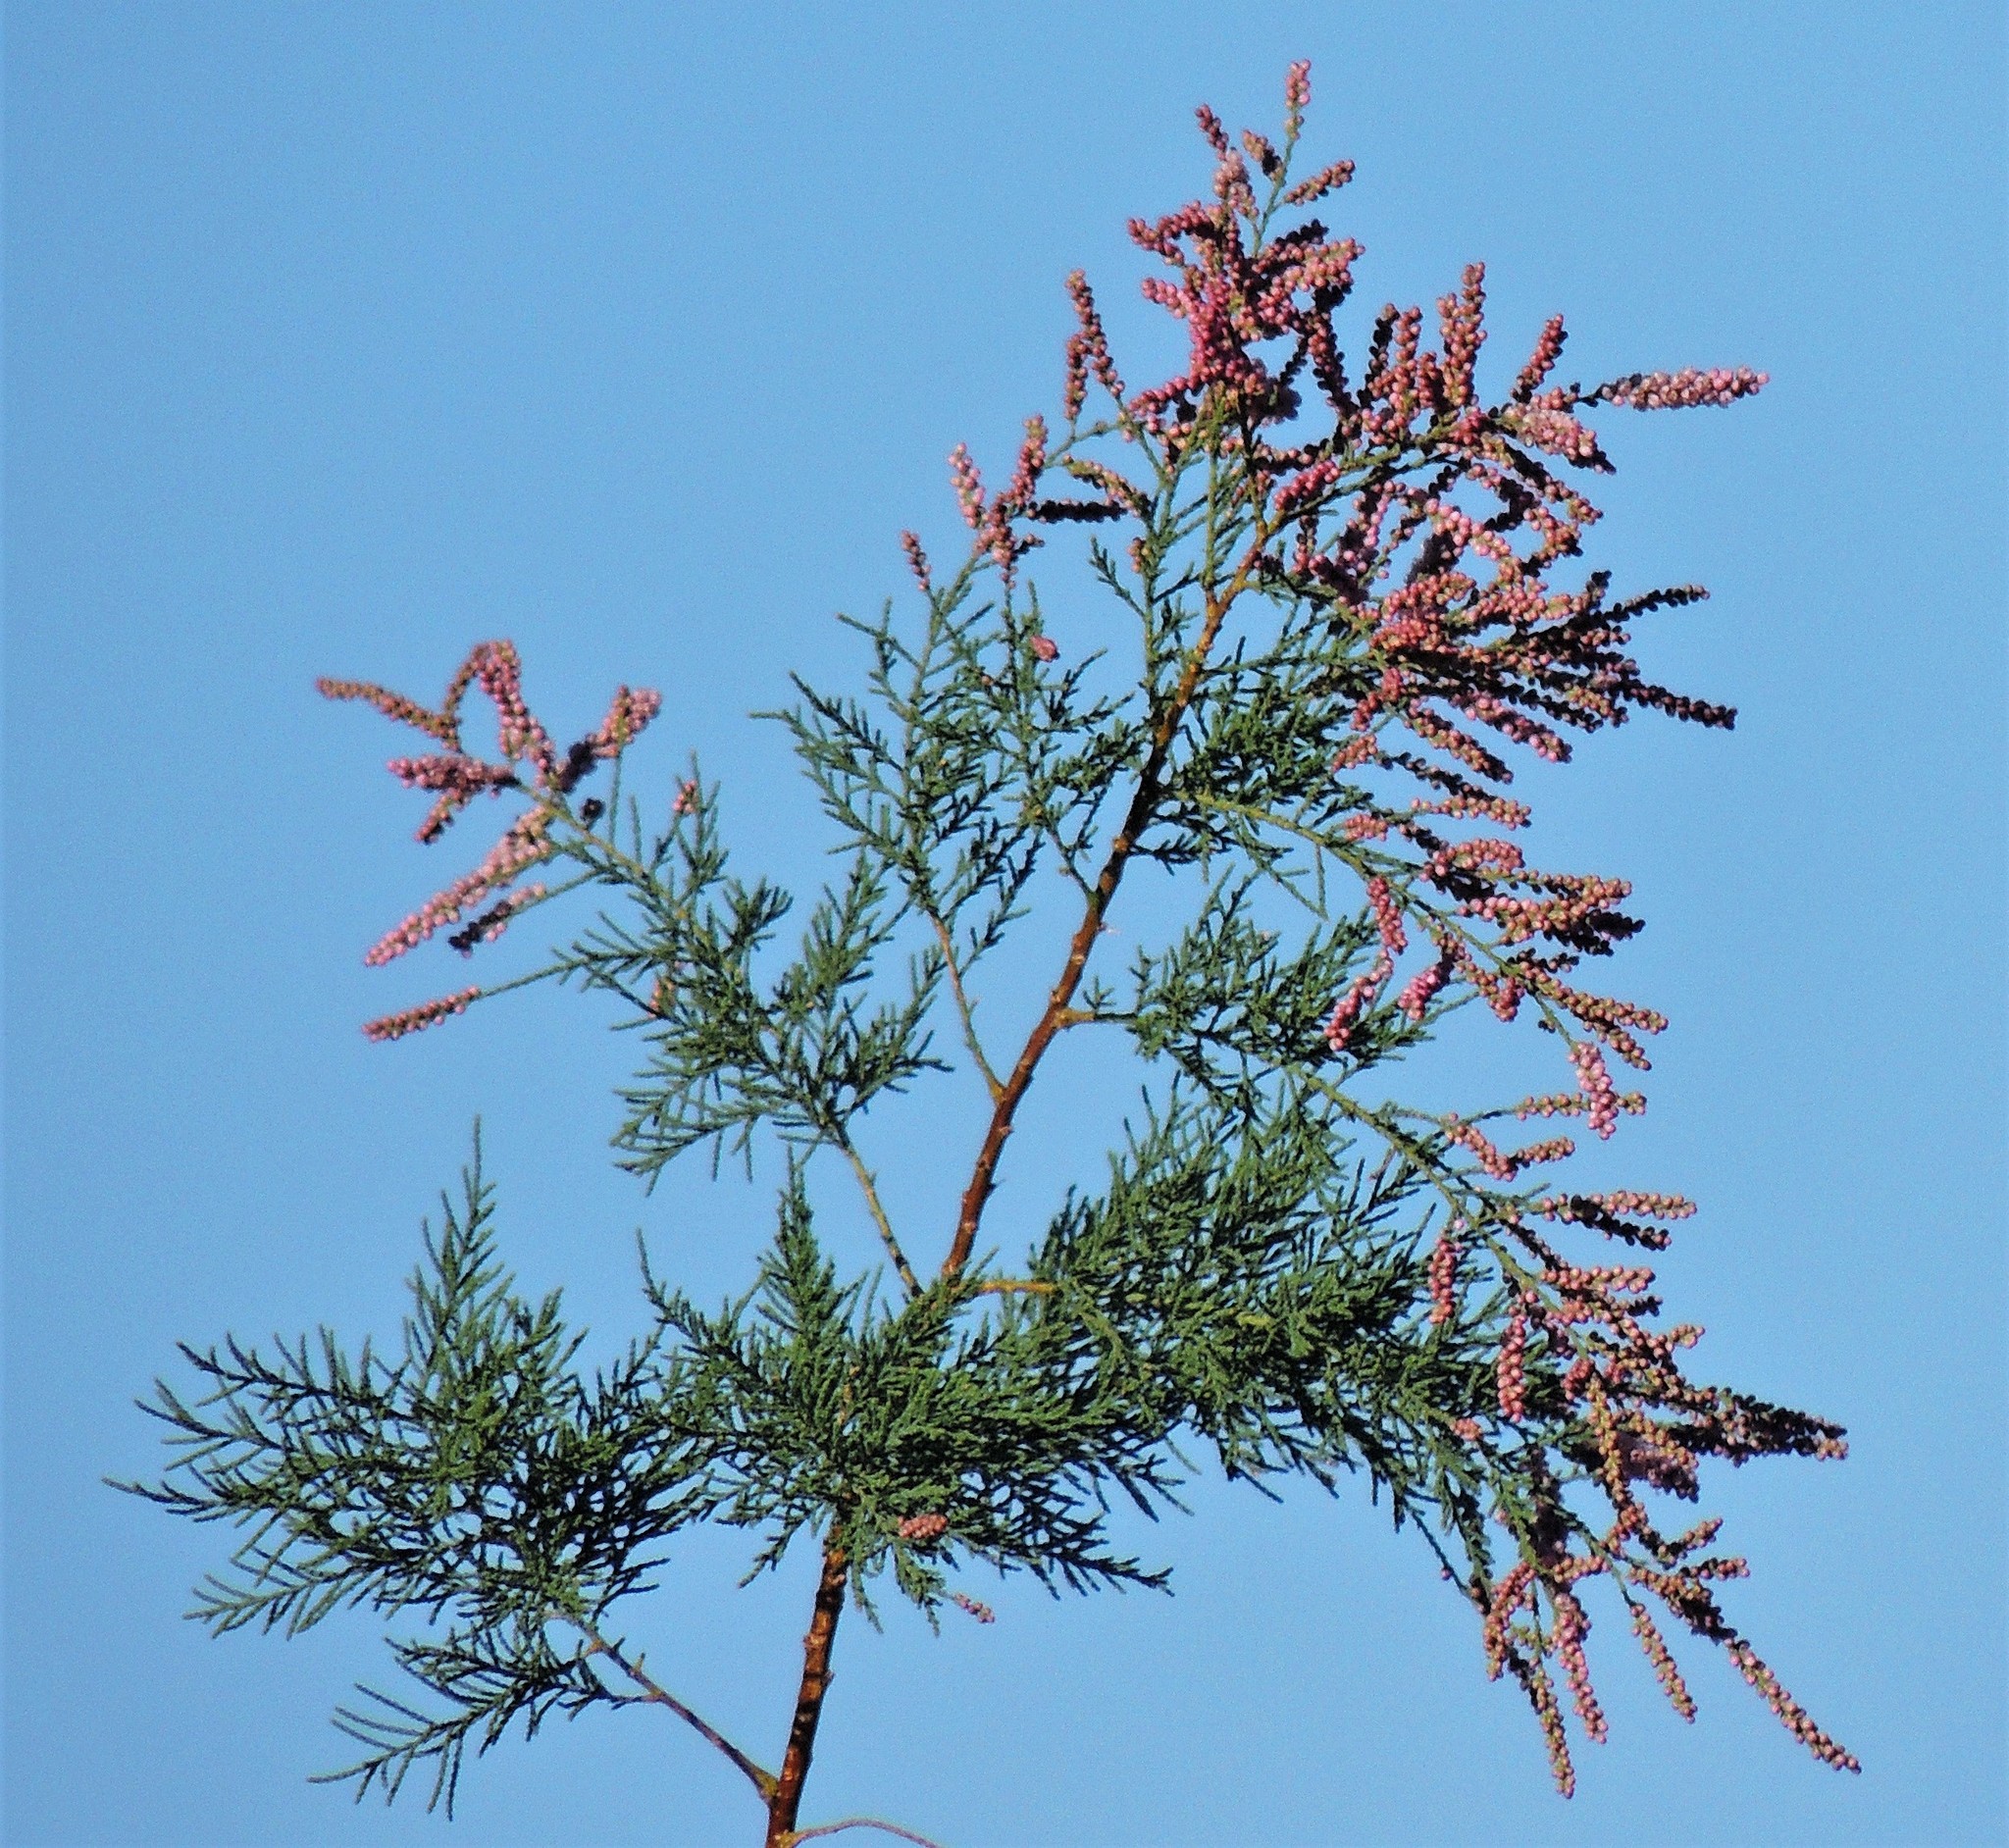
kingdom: Plantae
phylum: Tracheophyta
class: Magnoliopsida
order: Caryophyllales
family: Tamaricaceae
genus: Tamarix
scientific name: Tamarix ramosissima
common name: Pink tamarisk
